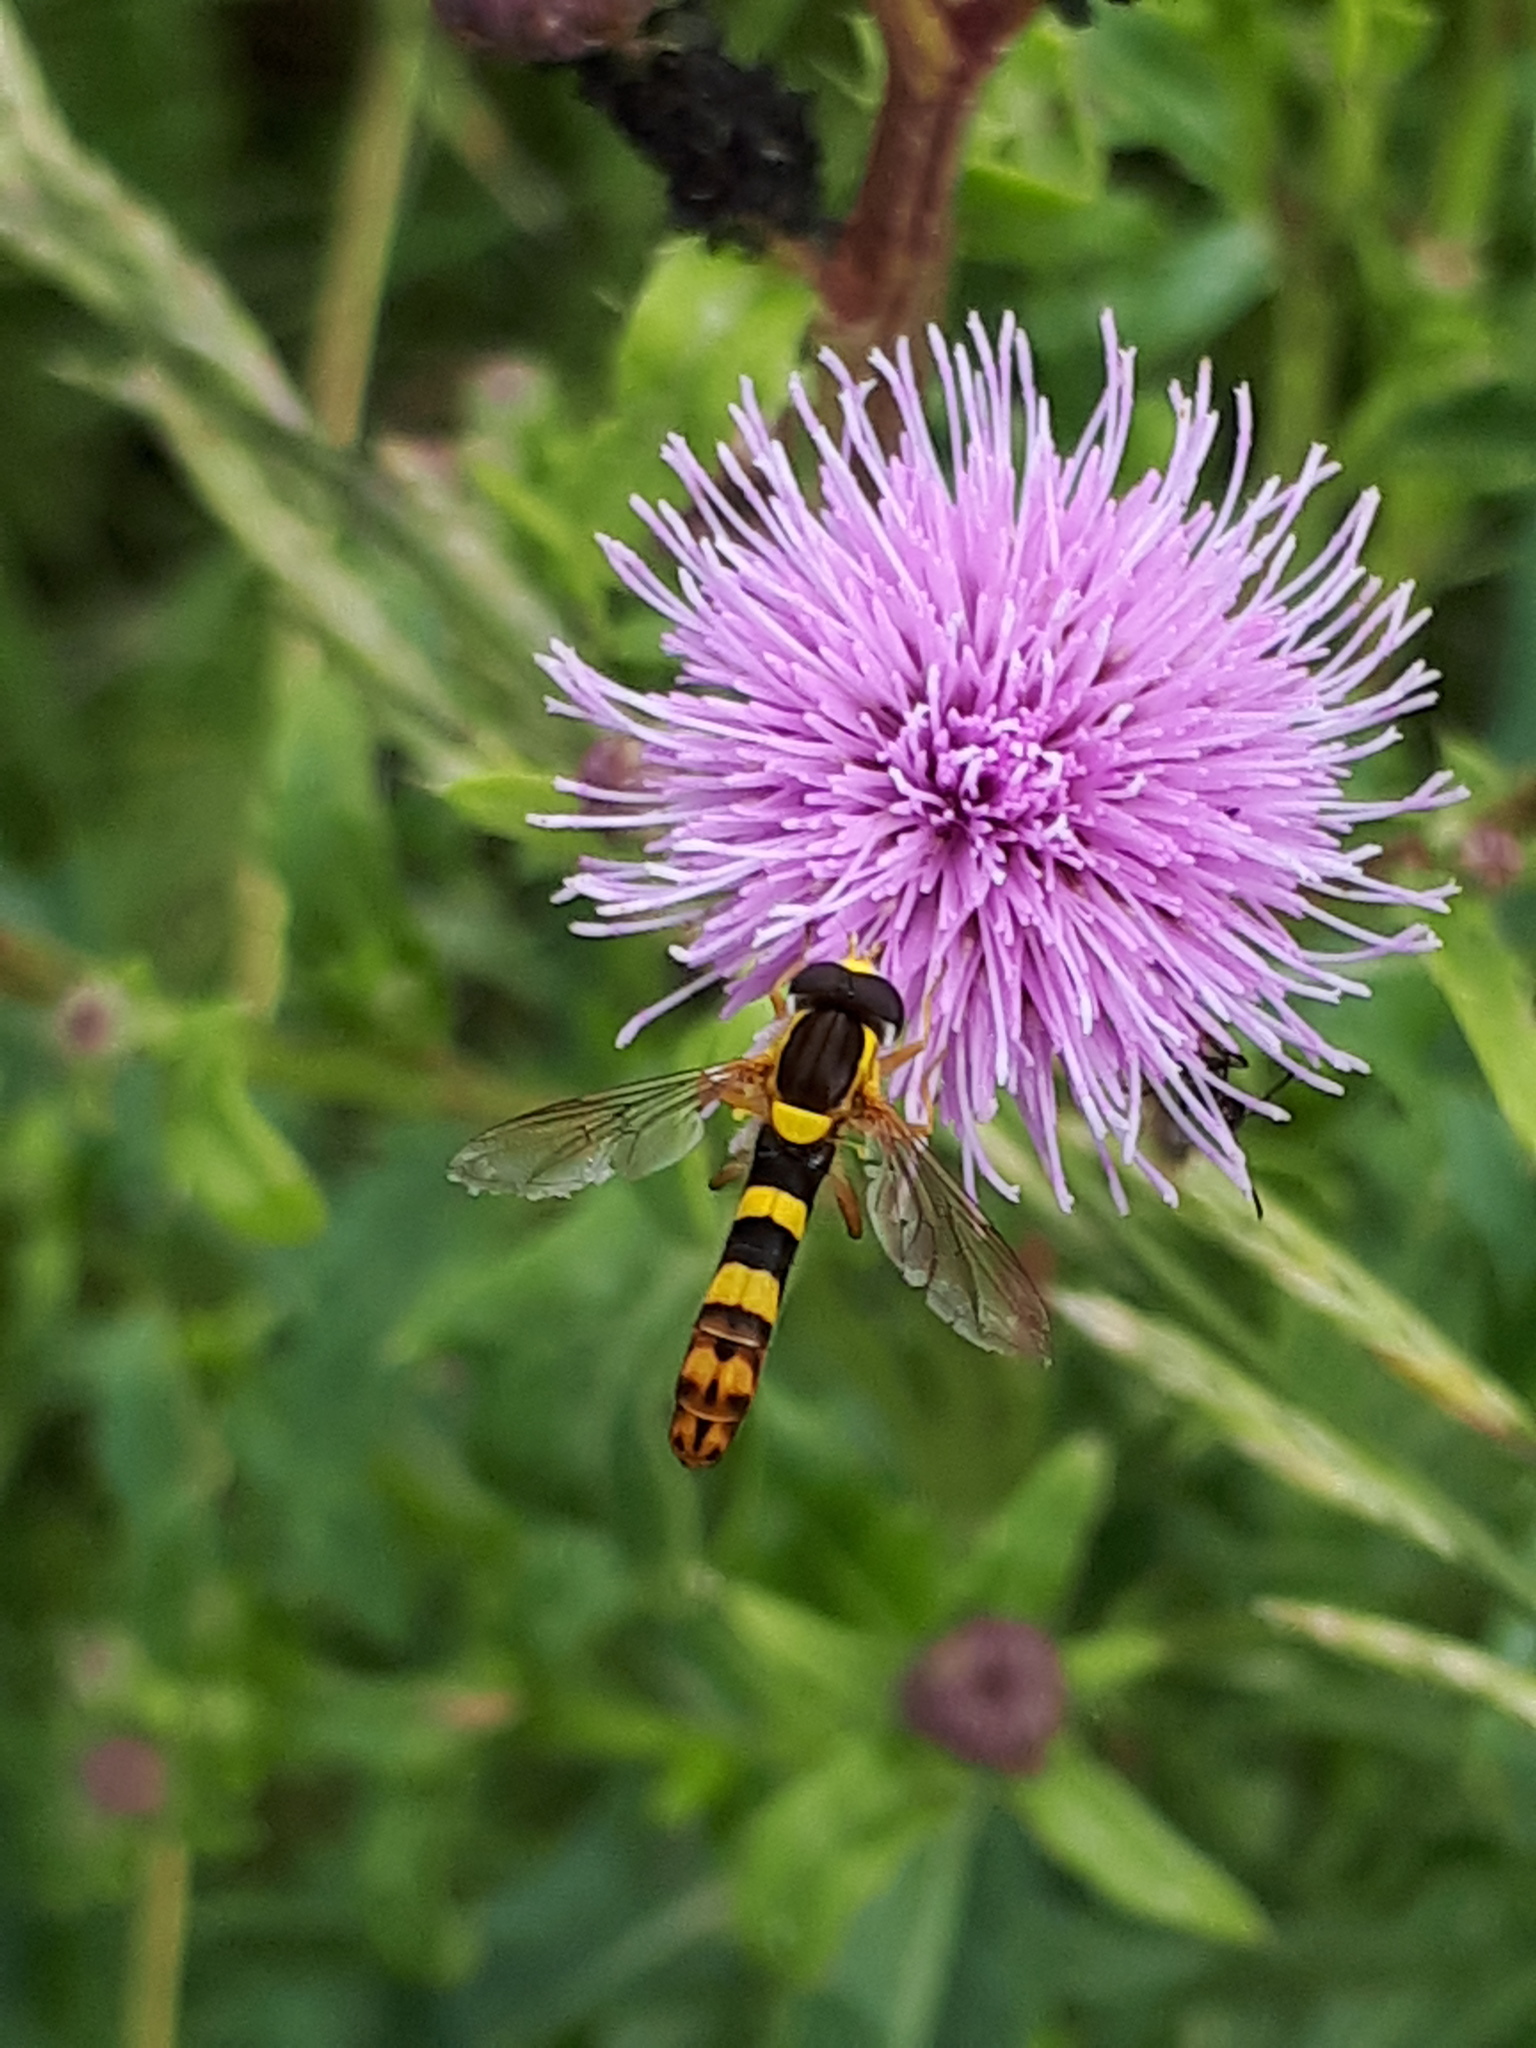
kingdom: Animalia
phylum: Arthropoda
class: Insecta
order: Diptera
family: Syrphidae
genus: Sphaerophoria
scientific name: Sphaerophoria scripta
